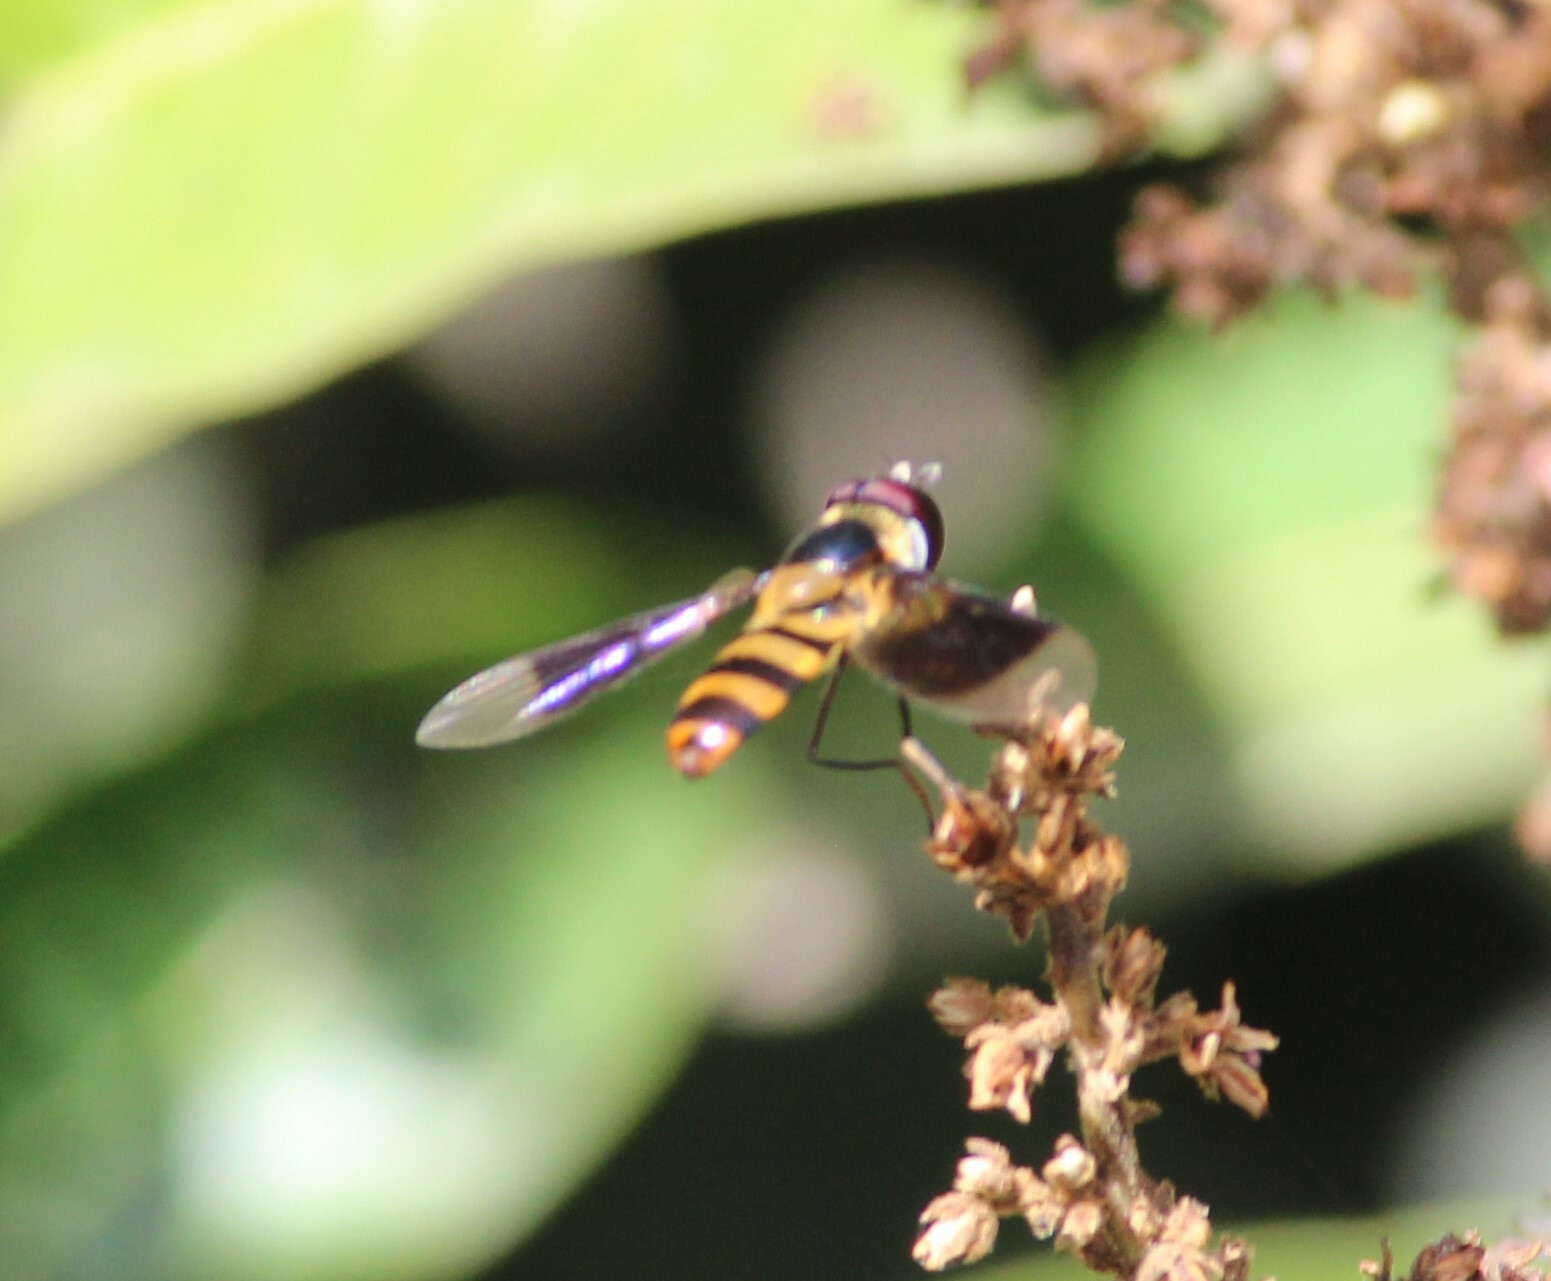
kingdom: Animalia
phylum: Arthropoda
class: Insecta
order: Diptera
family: Syrphidae
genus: Dideopsis
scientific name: Dideopsis aegrota
